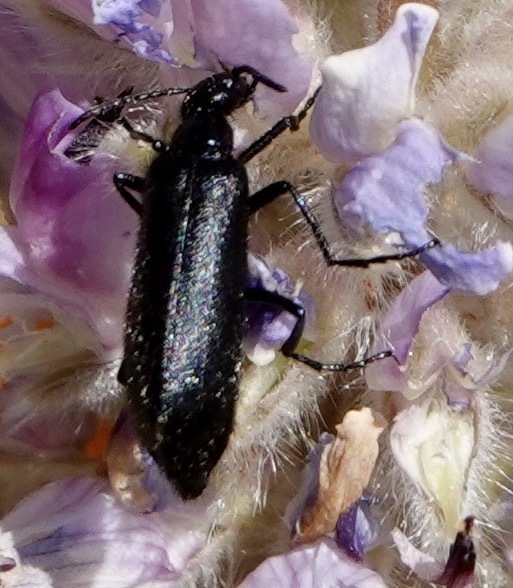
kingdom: Animalia
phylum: Arthropoda
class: Insecta
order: Coleoptera
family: Meloidae
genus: Epicauta
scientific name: Epicauta puncticollis
